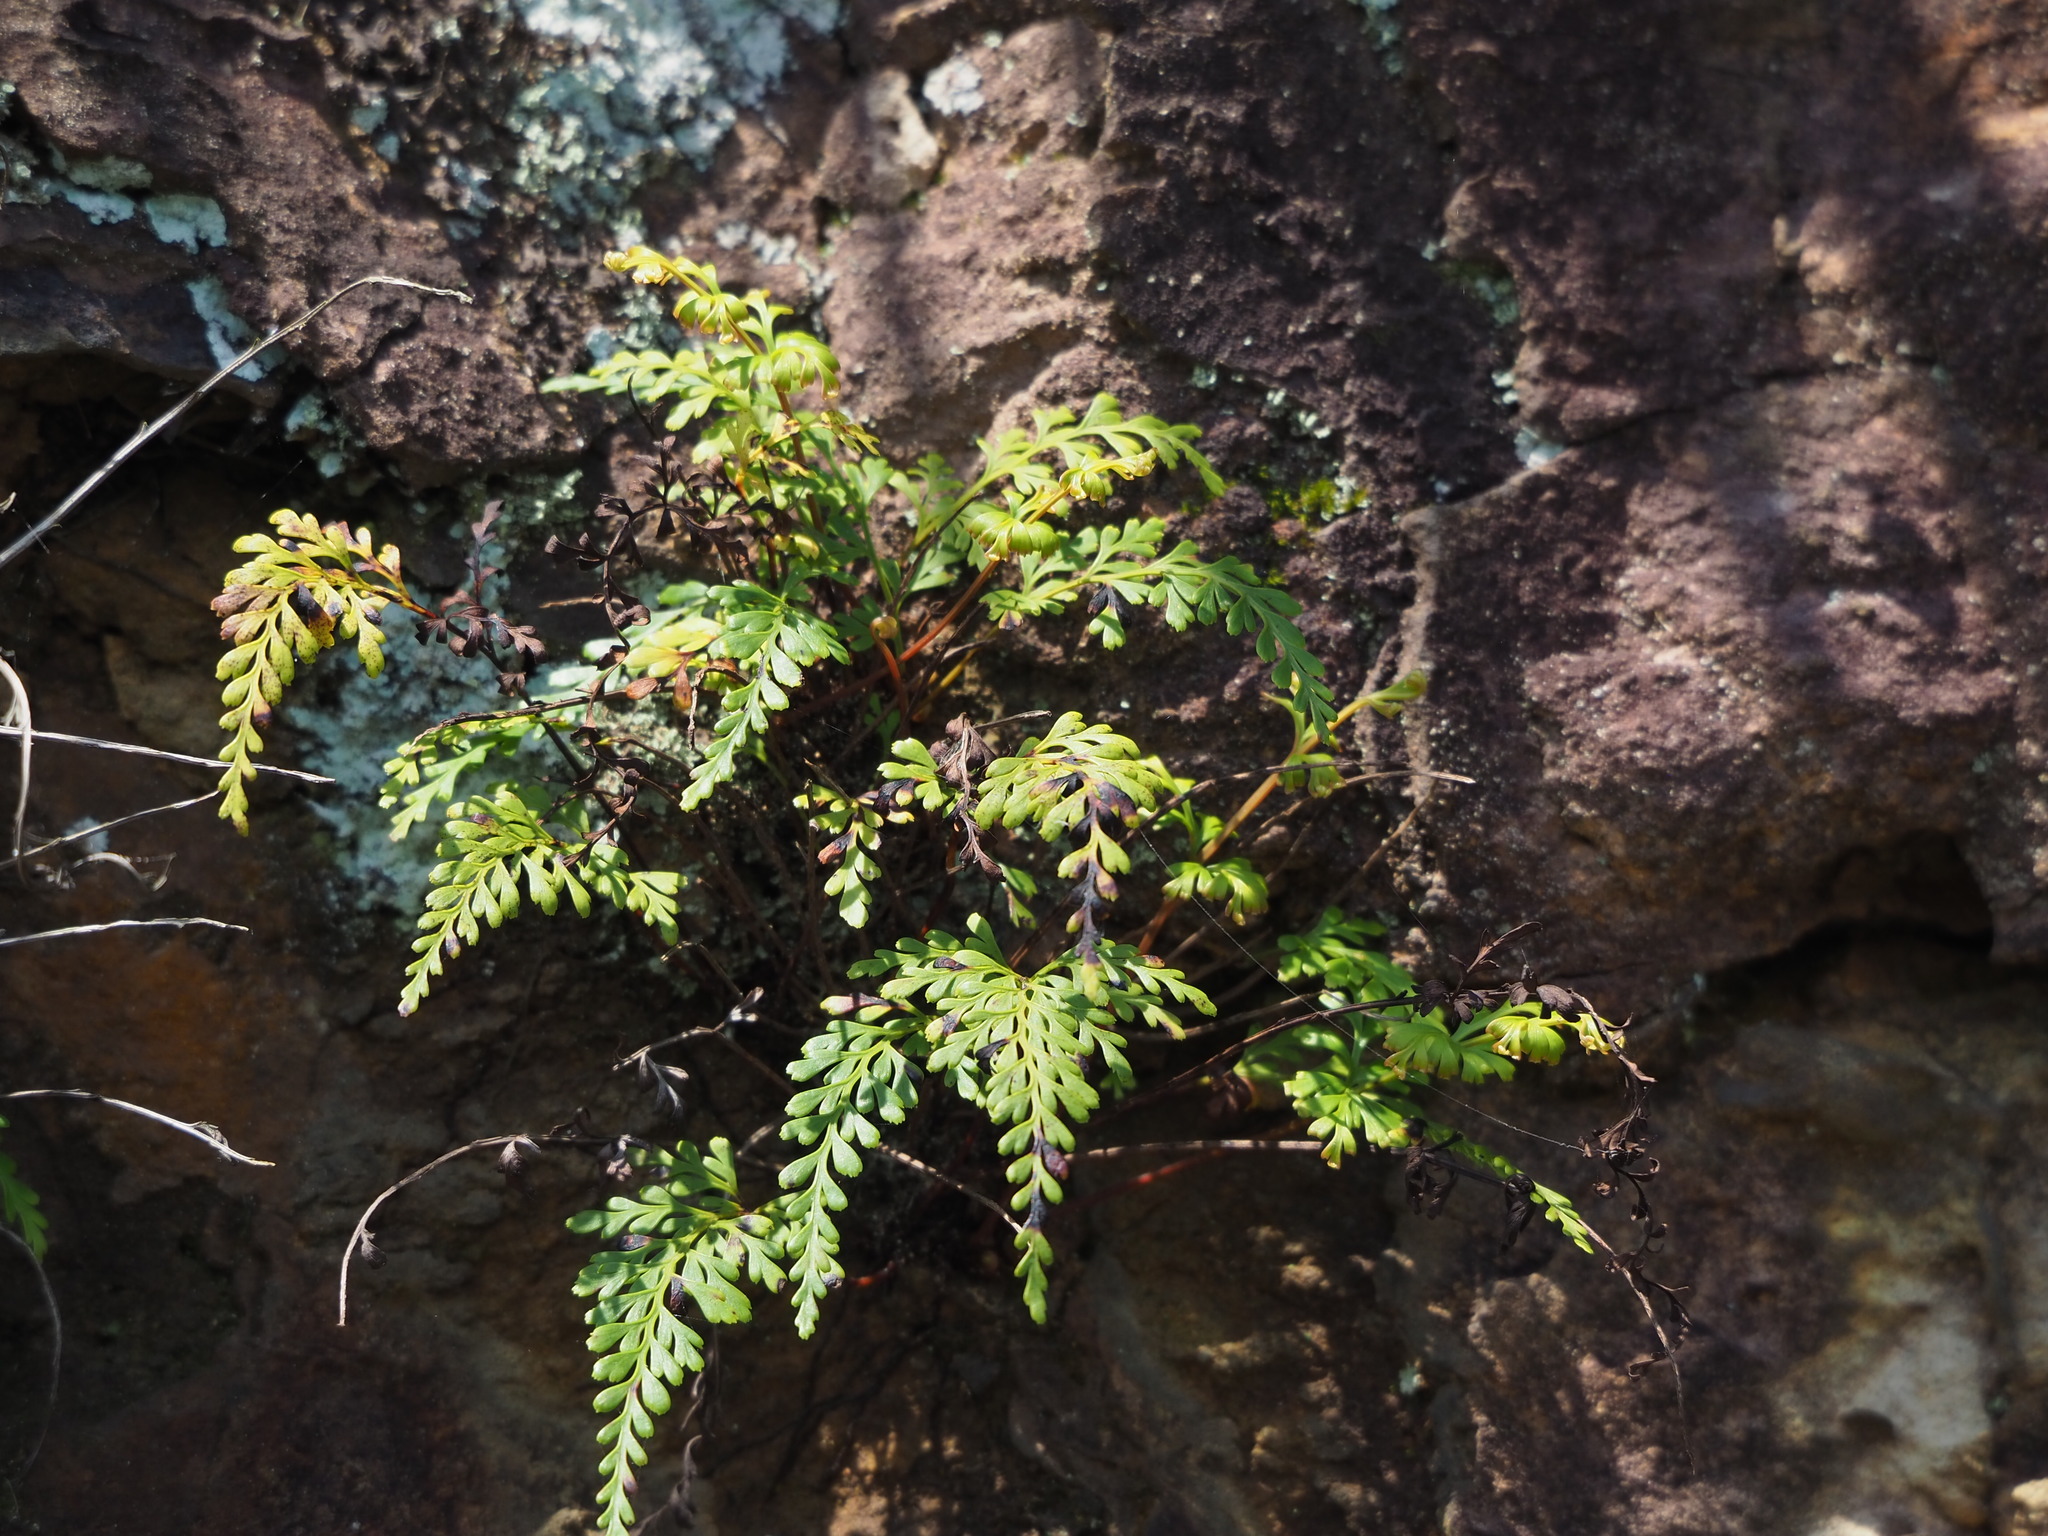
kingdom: Plantae
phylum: Tracheophyta
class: Polypodiopsida
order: Polypodiales
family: Lindsaeaceae
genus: Odontosoria
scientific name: Odontosoria biflora
